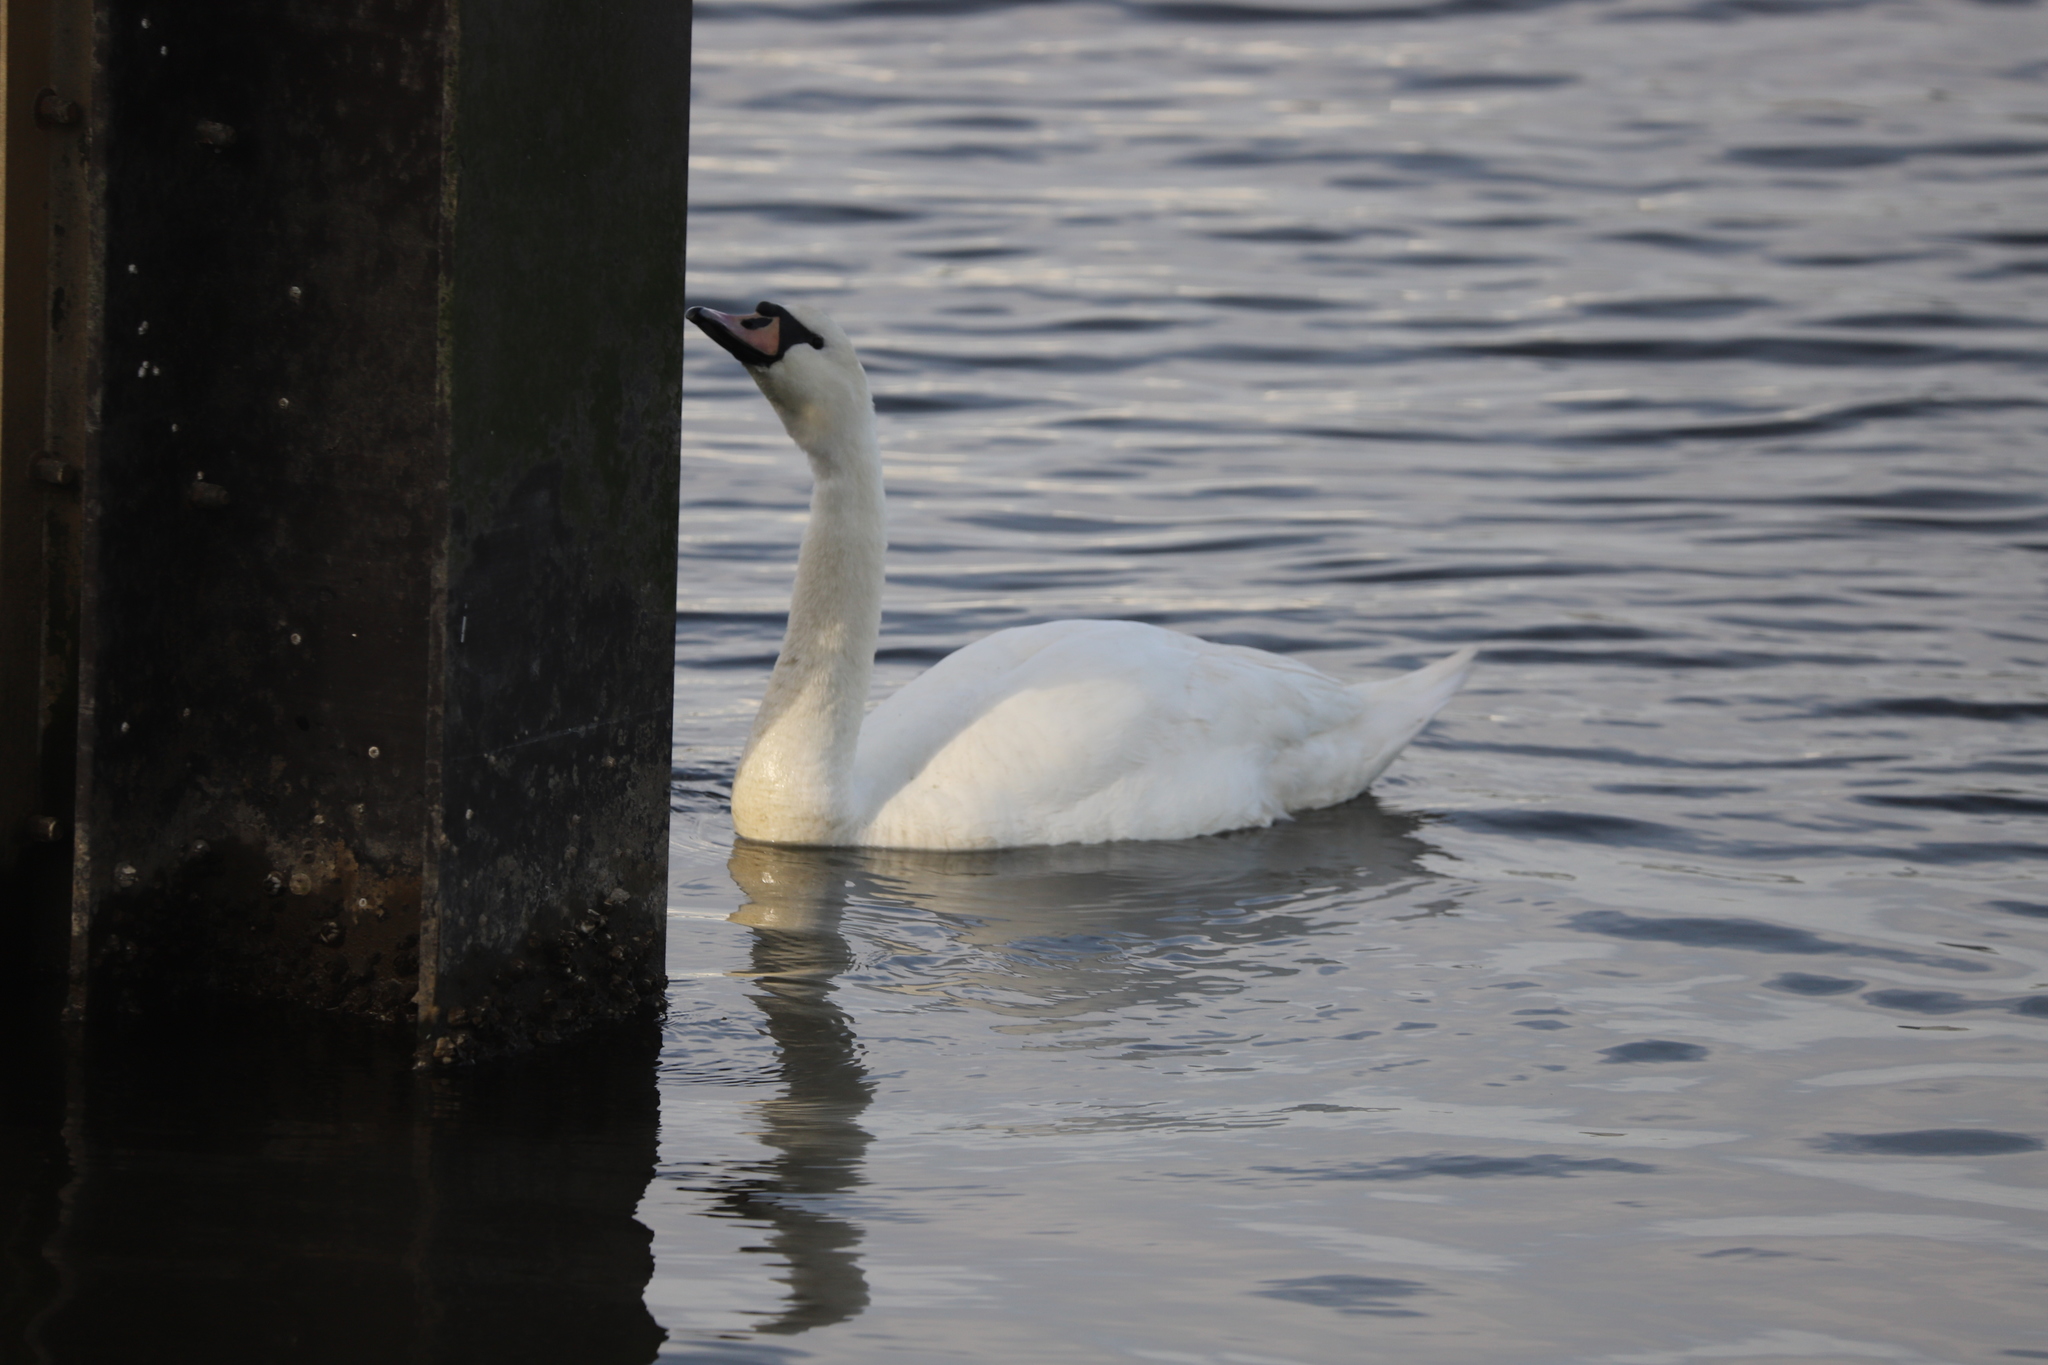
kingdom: Animalia
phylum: Chordata
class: Aves
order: Anseriformes
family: Anatidae
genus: Cygnus
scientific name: Cygnus olor
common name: Mute swan
